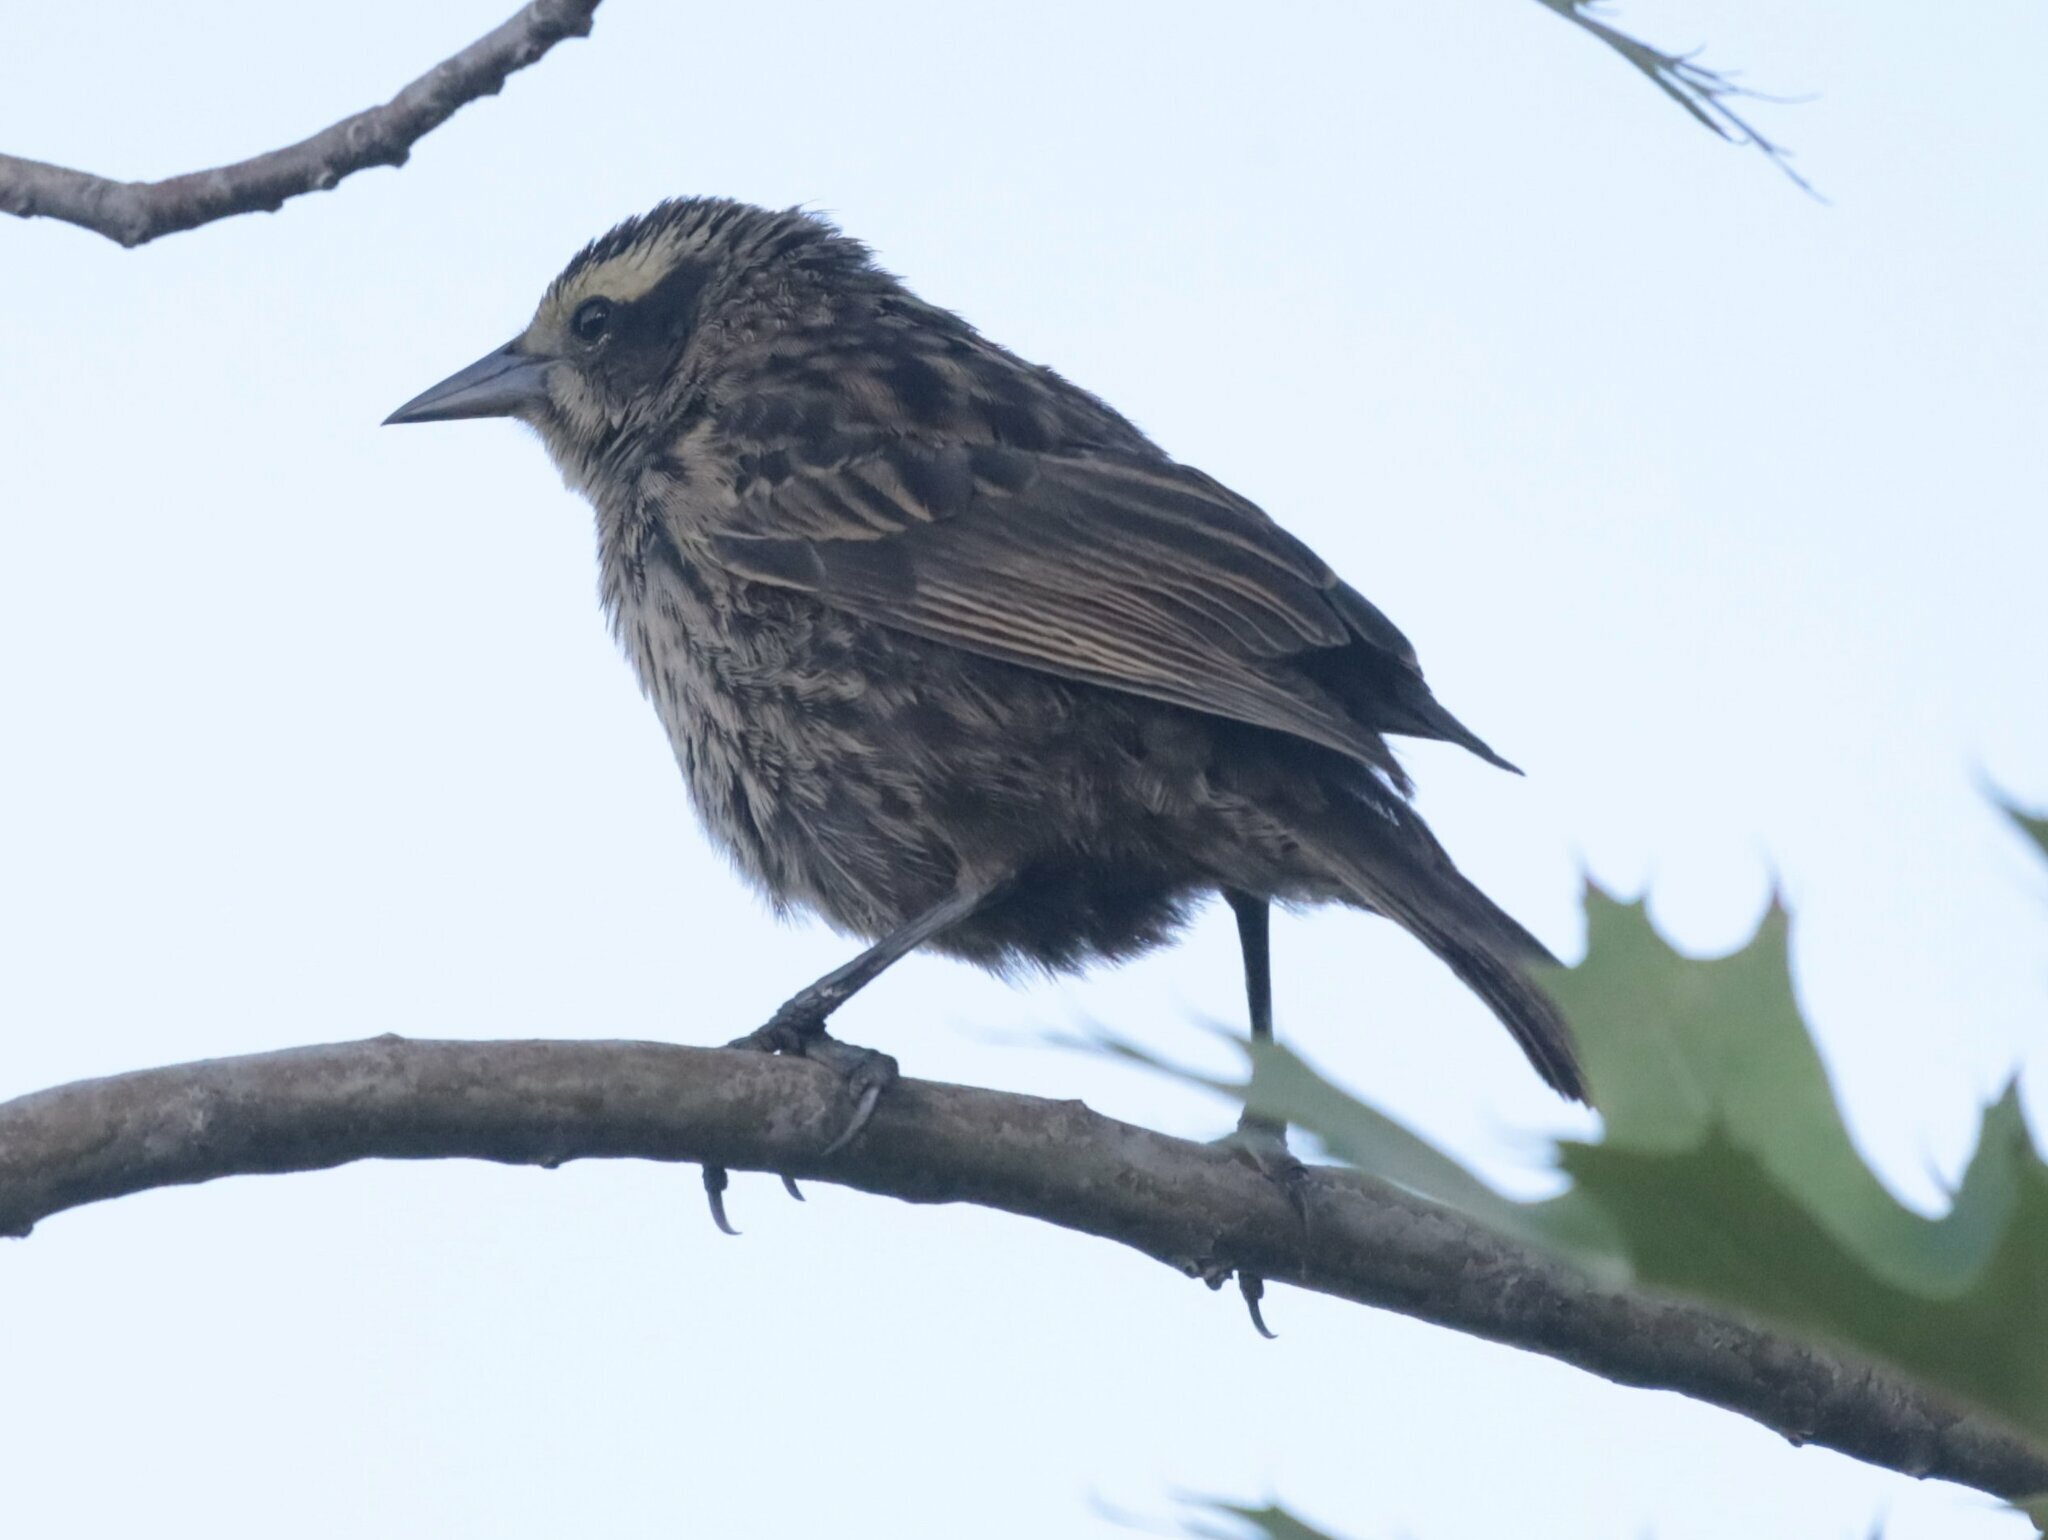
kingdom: Animalia
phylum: Chordata
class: Aves
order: Passeriformes
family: Icteridae
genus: Agelasticus
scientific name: Agelasticus thilius
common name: Yellow-winged blackbird
